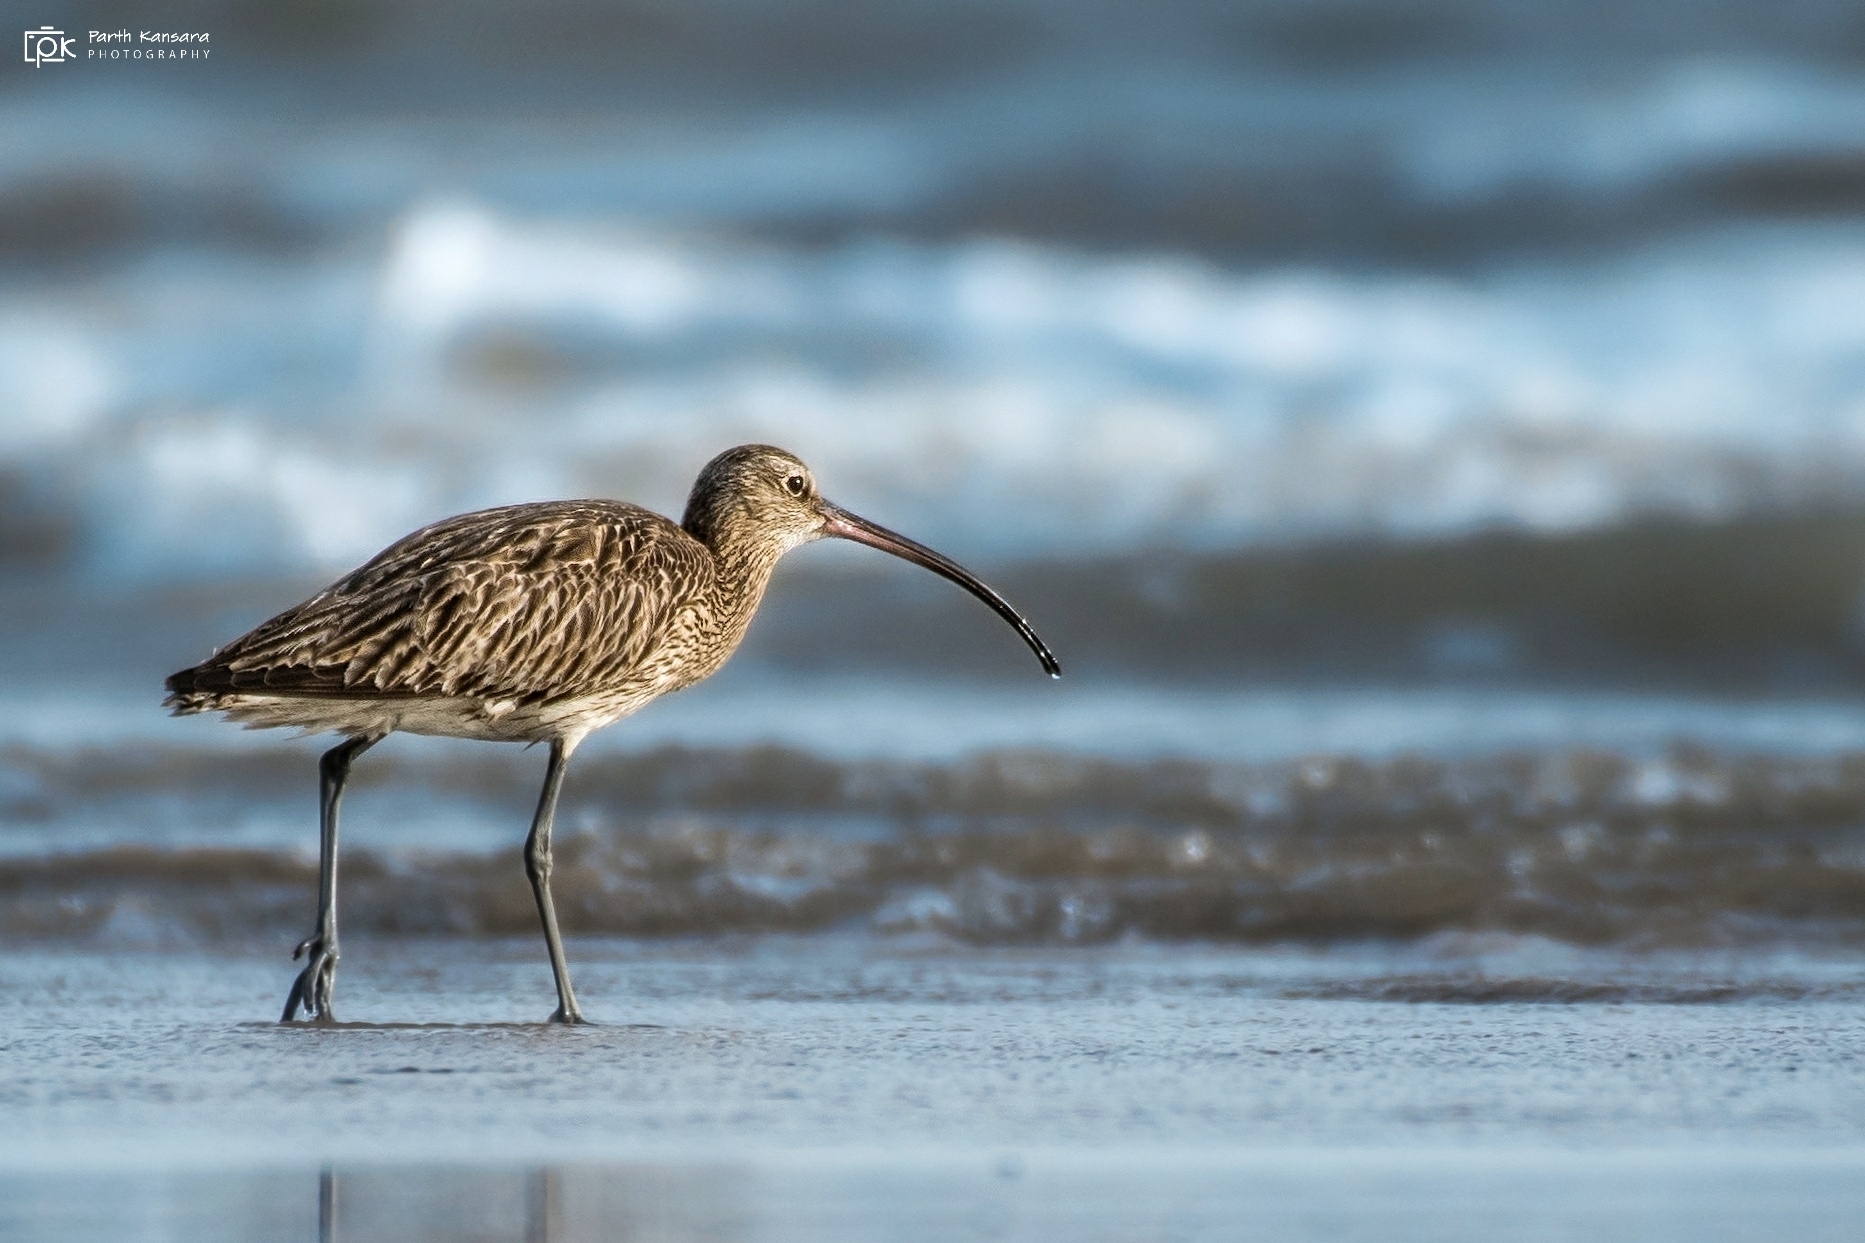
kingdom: Animalia
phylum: Chordata
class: Aves
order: Charadriiformes
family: Scolopacidae
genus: Numenius
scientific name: Numenius arquata
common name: Eurasian curlew
